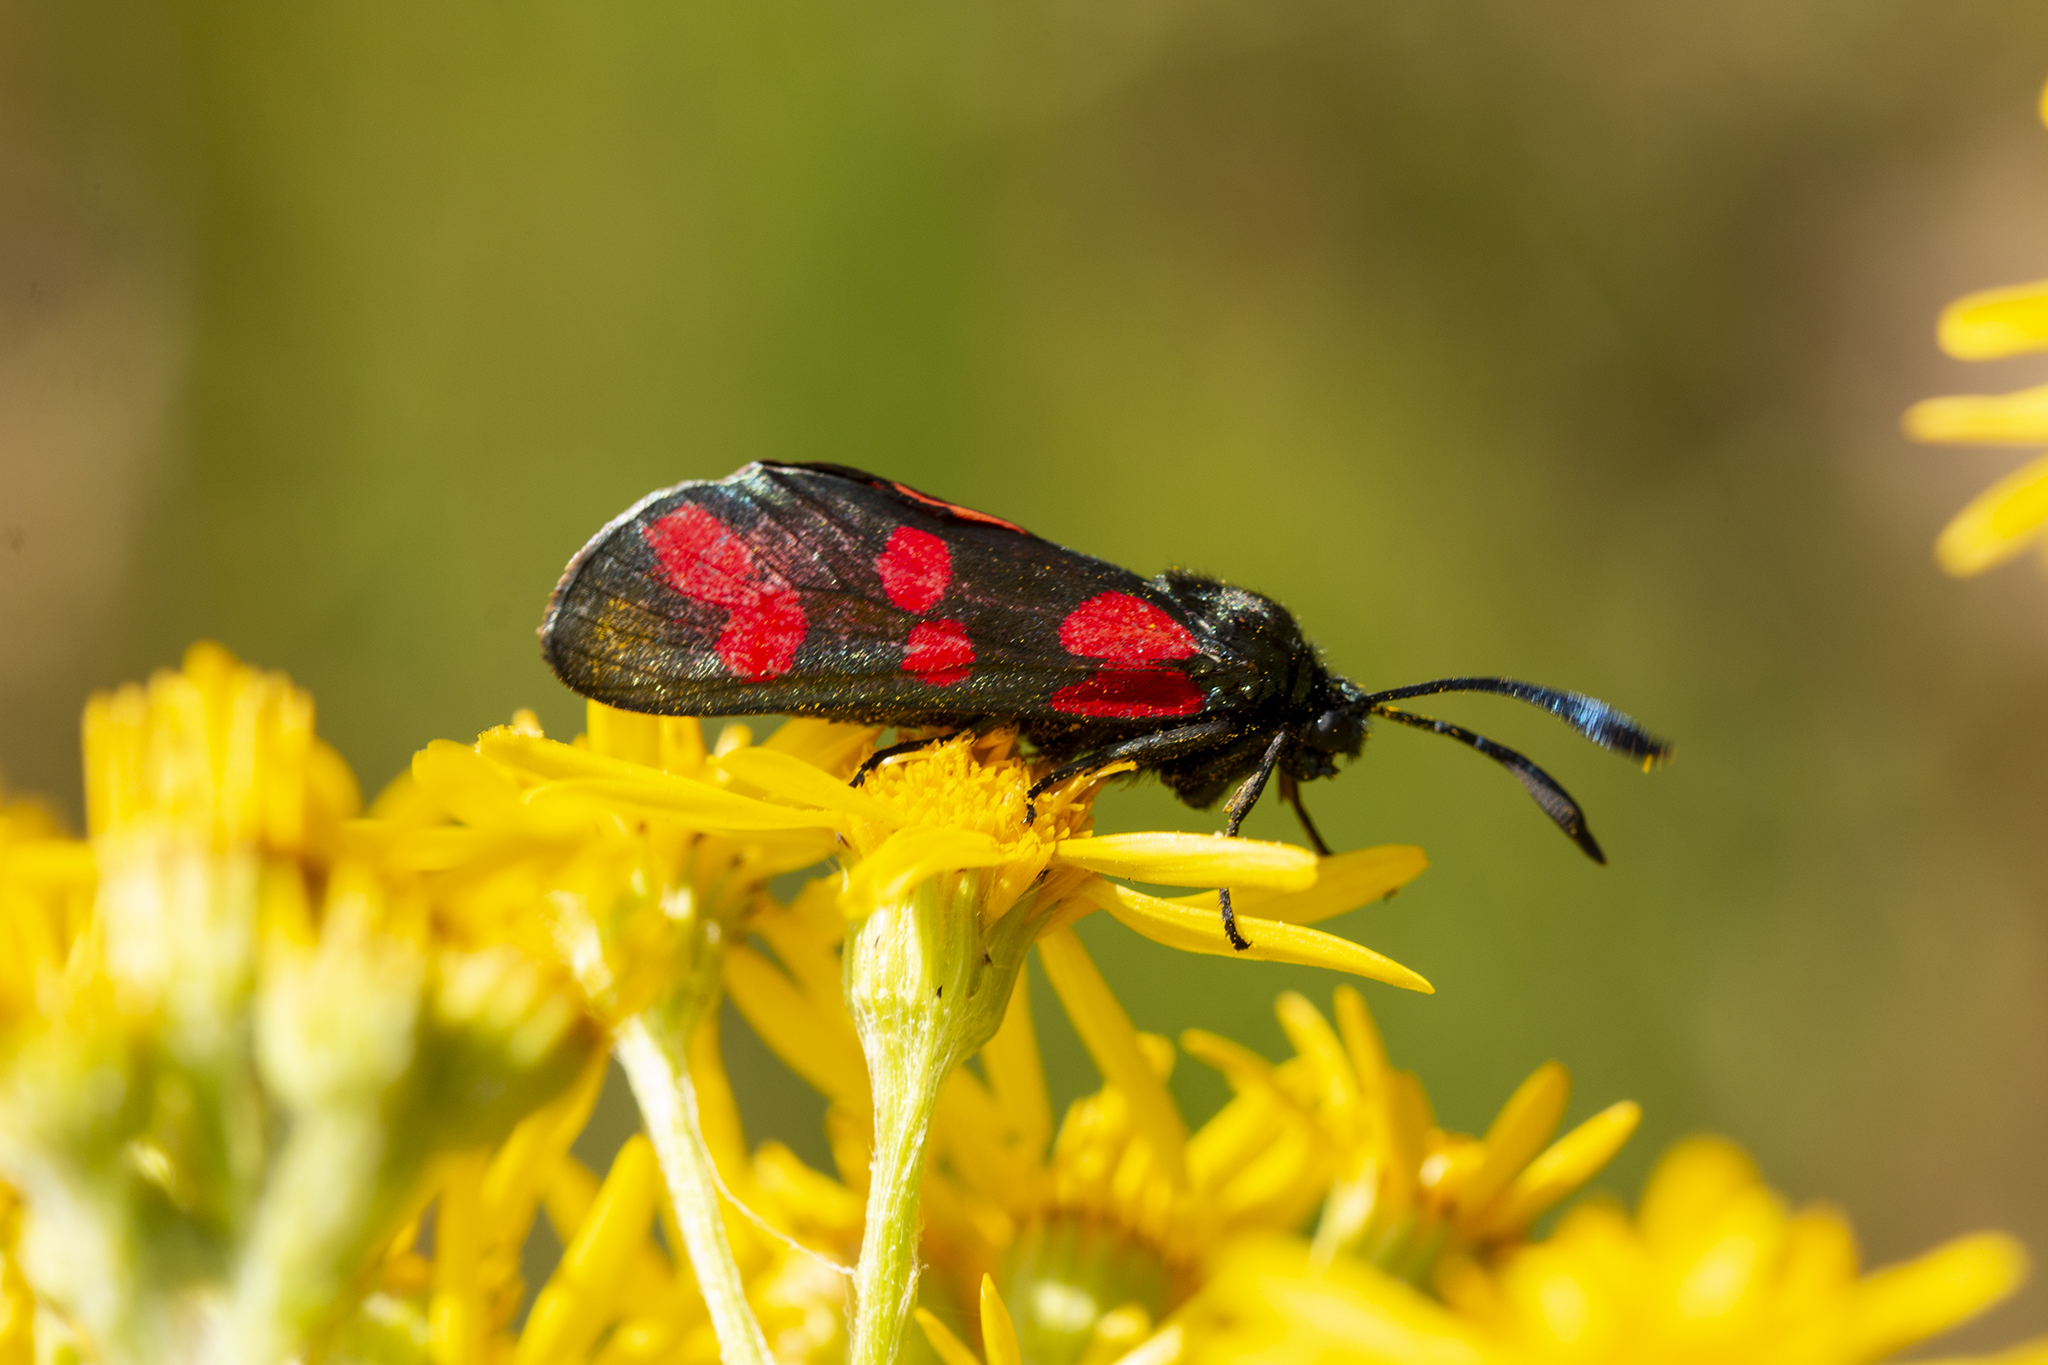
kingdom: Animalia
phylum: Arthropoda
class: Insecta
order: Lepidoptera
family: Zygaenidae
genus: Zygaena
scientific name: Zygaena filipendulae
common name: Six-spot burnet
